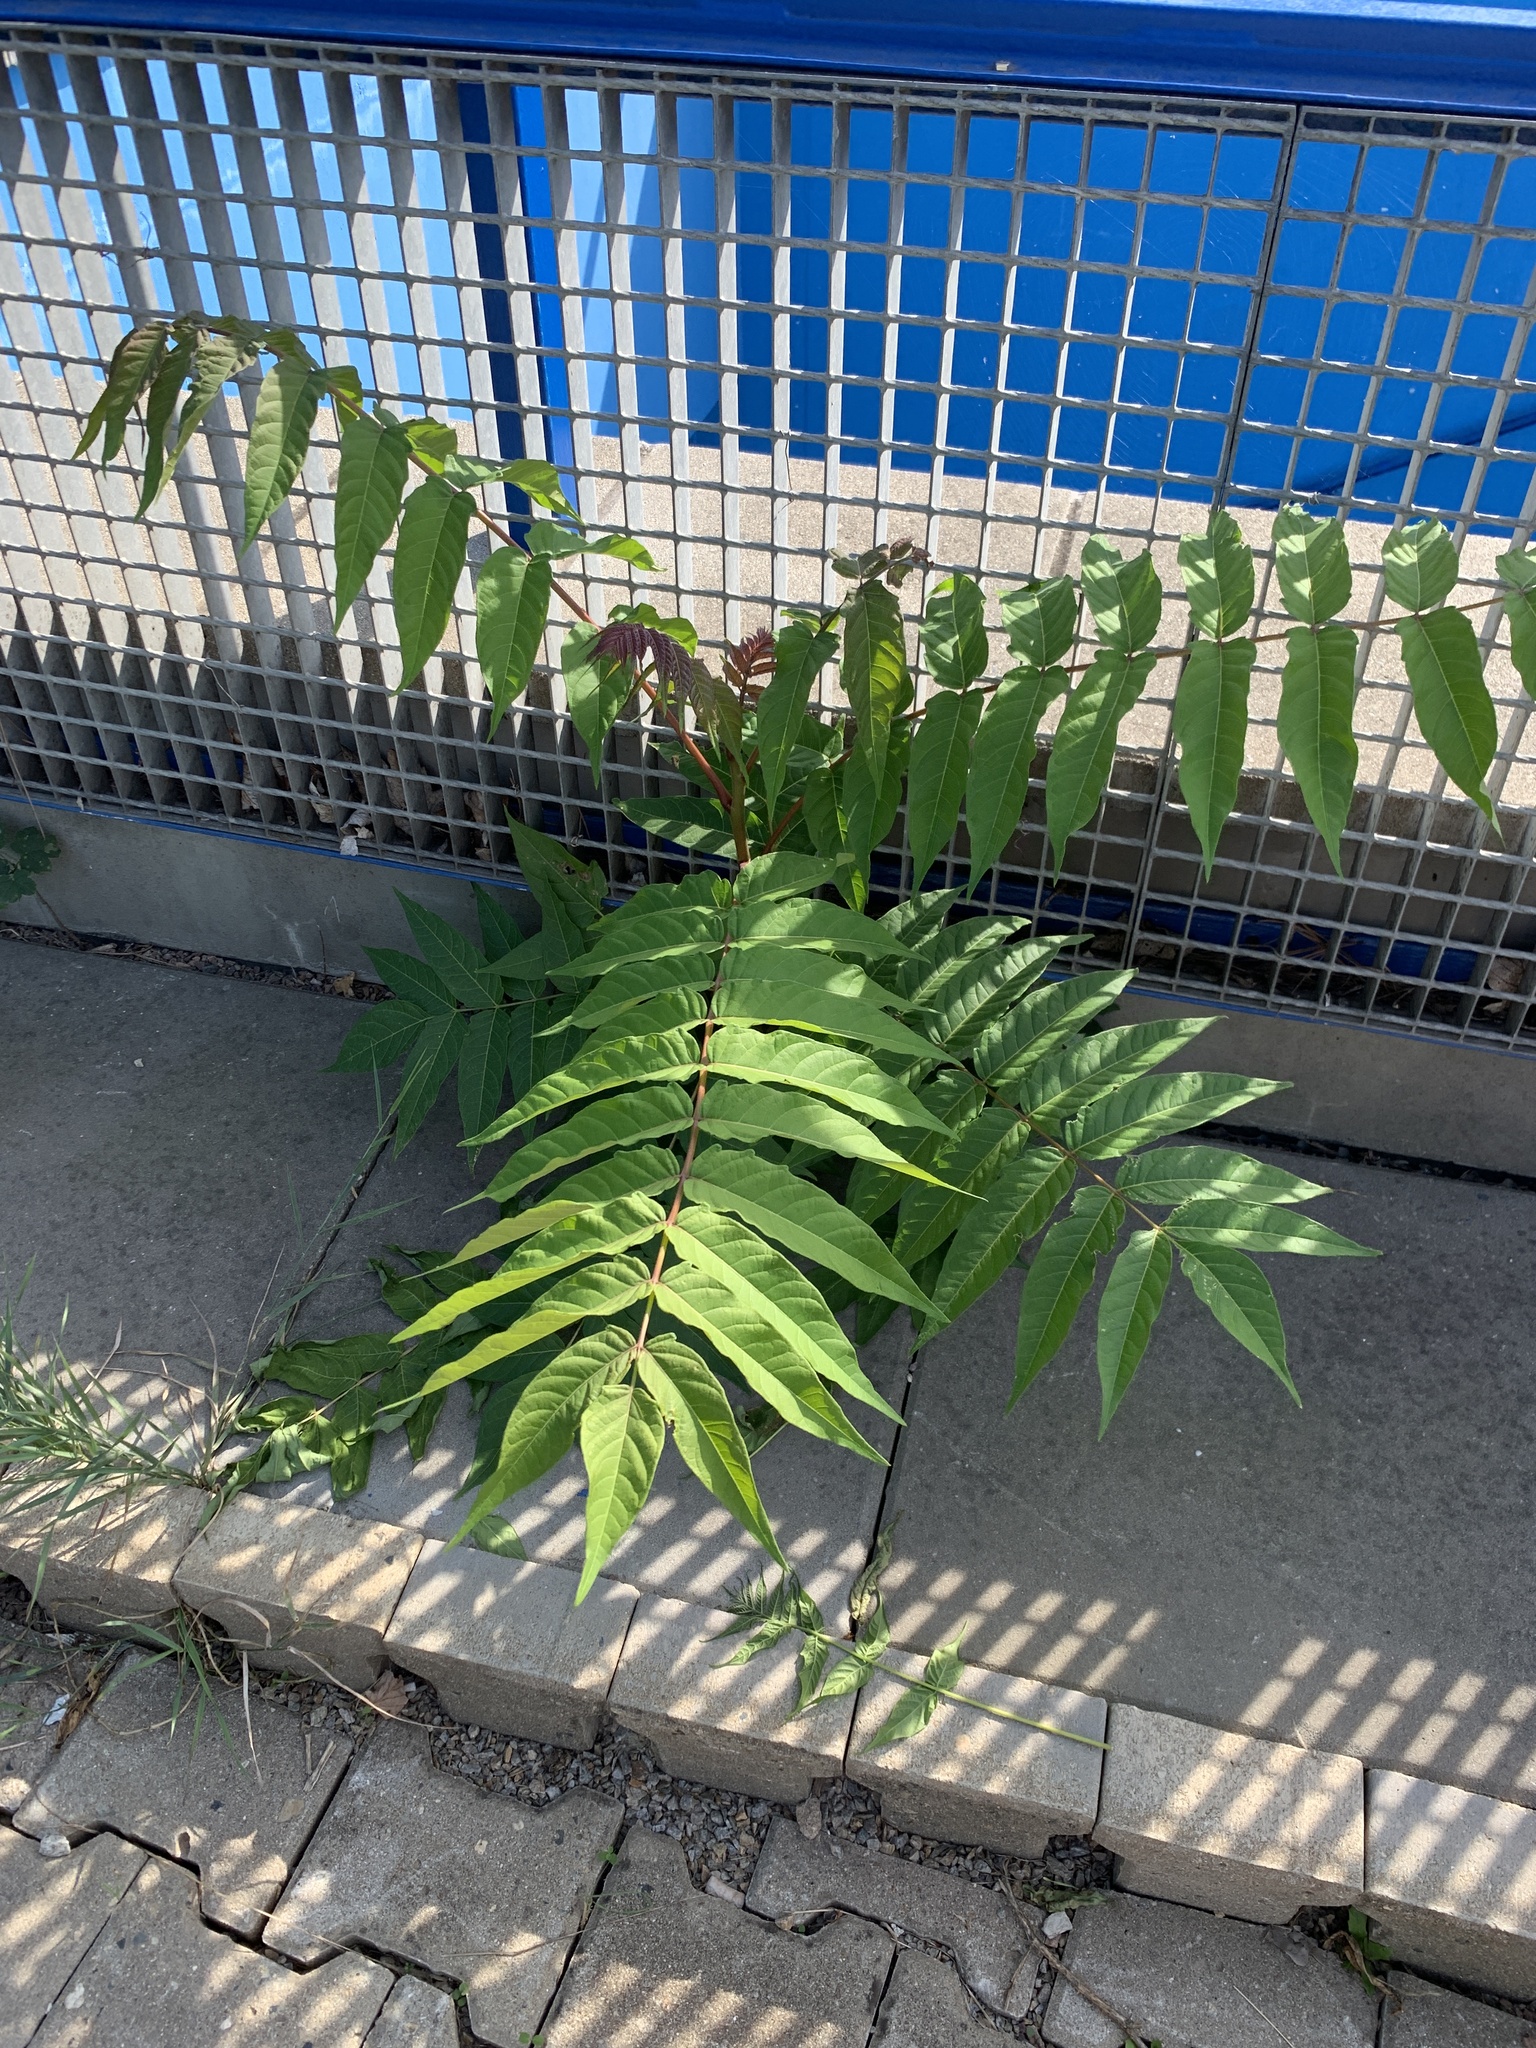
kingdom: Plantae
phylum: Tracheophyta
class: Magnoliopsida
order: Sapindales
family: Simaroubaceae
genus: Ailanthus
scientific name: Ailanthus altissima
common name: Tree-of-heaven
